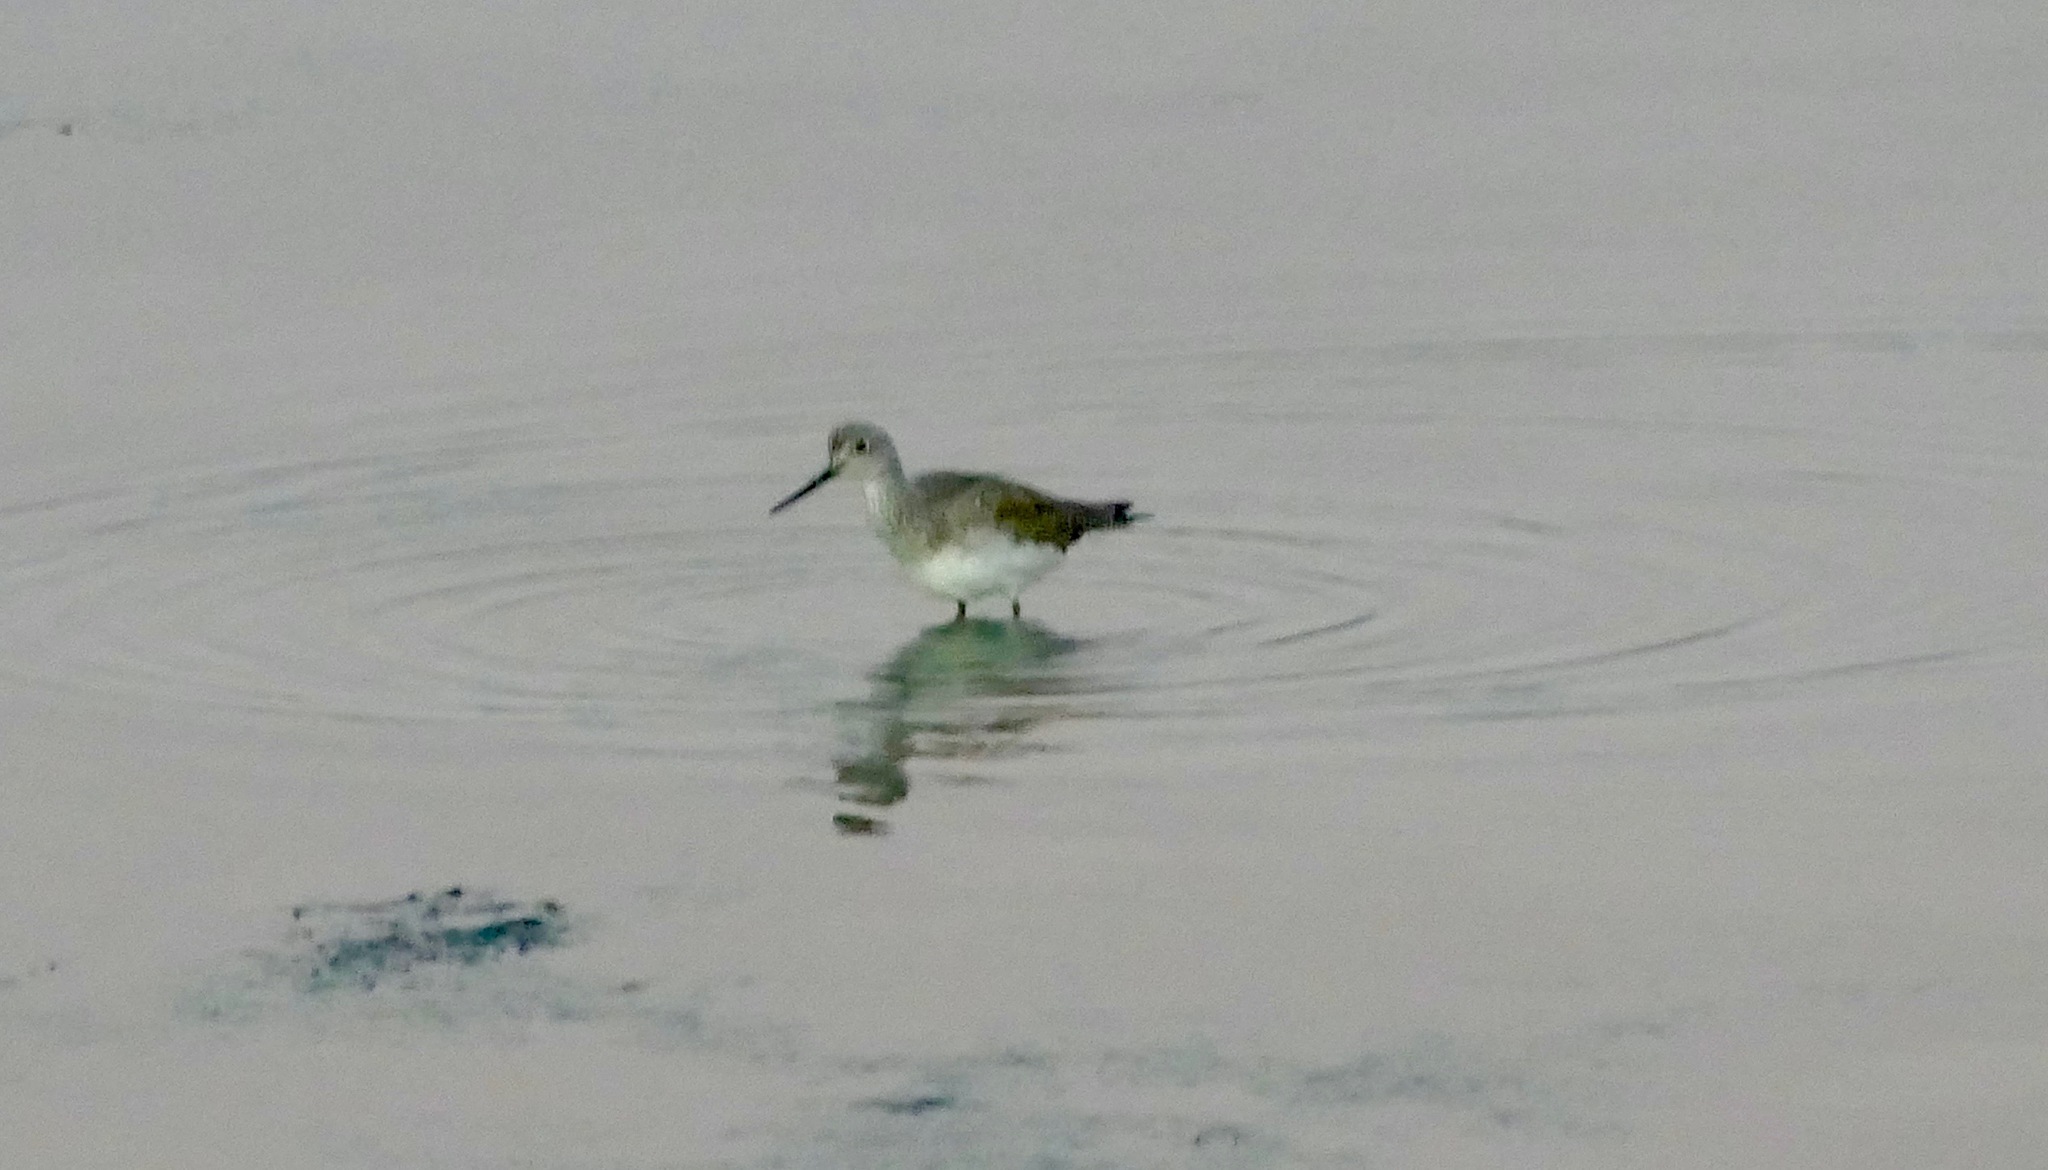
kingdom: Animalia
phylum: Chordata
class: Aves
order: Charadriiformes
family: Scolopacidae
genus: Tringa
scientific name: Tringa melanoleuca
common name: Greater yellowlegs
